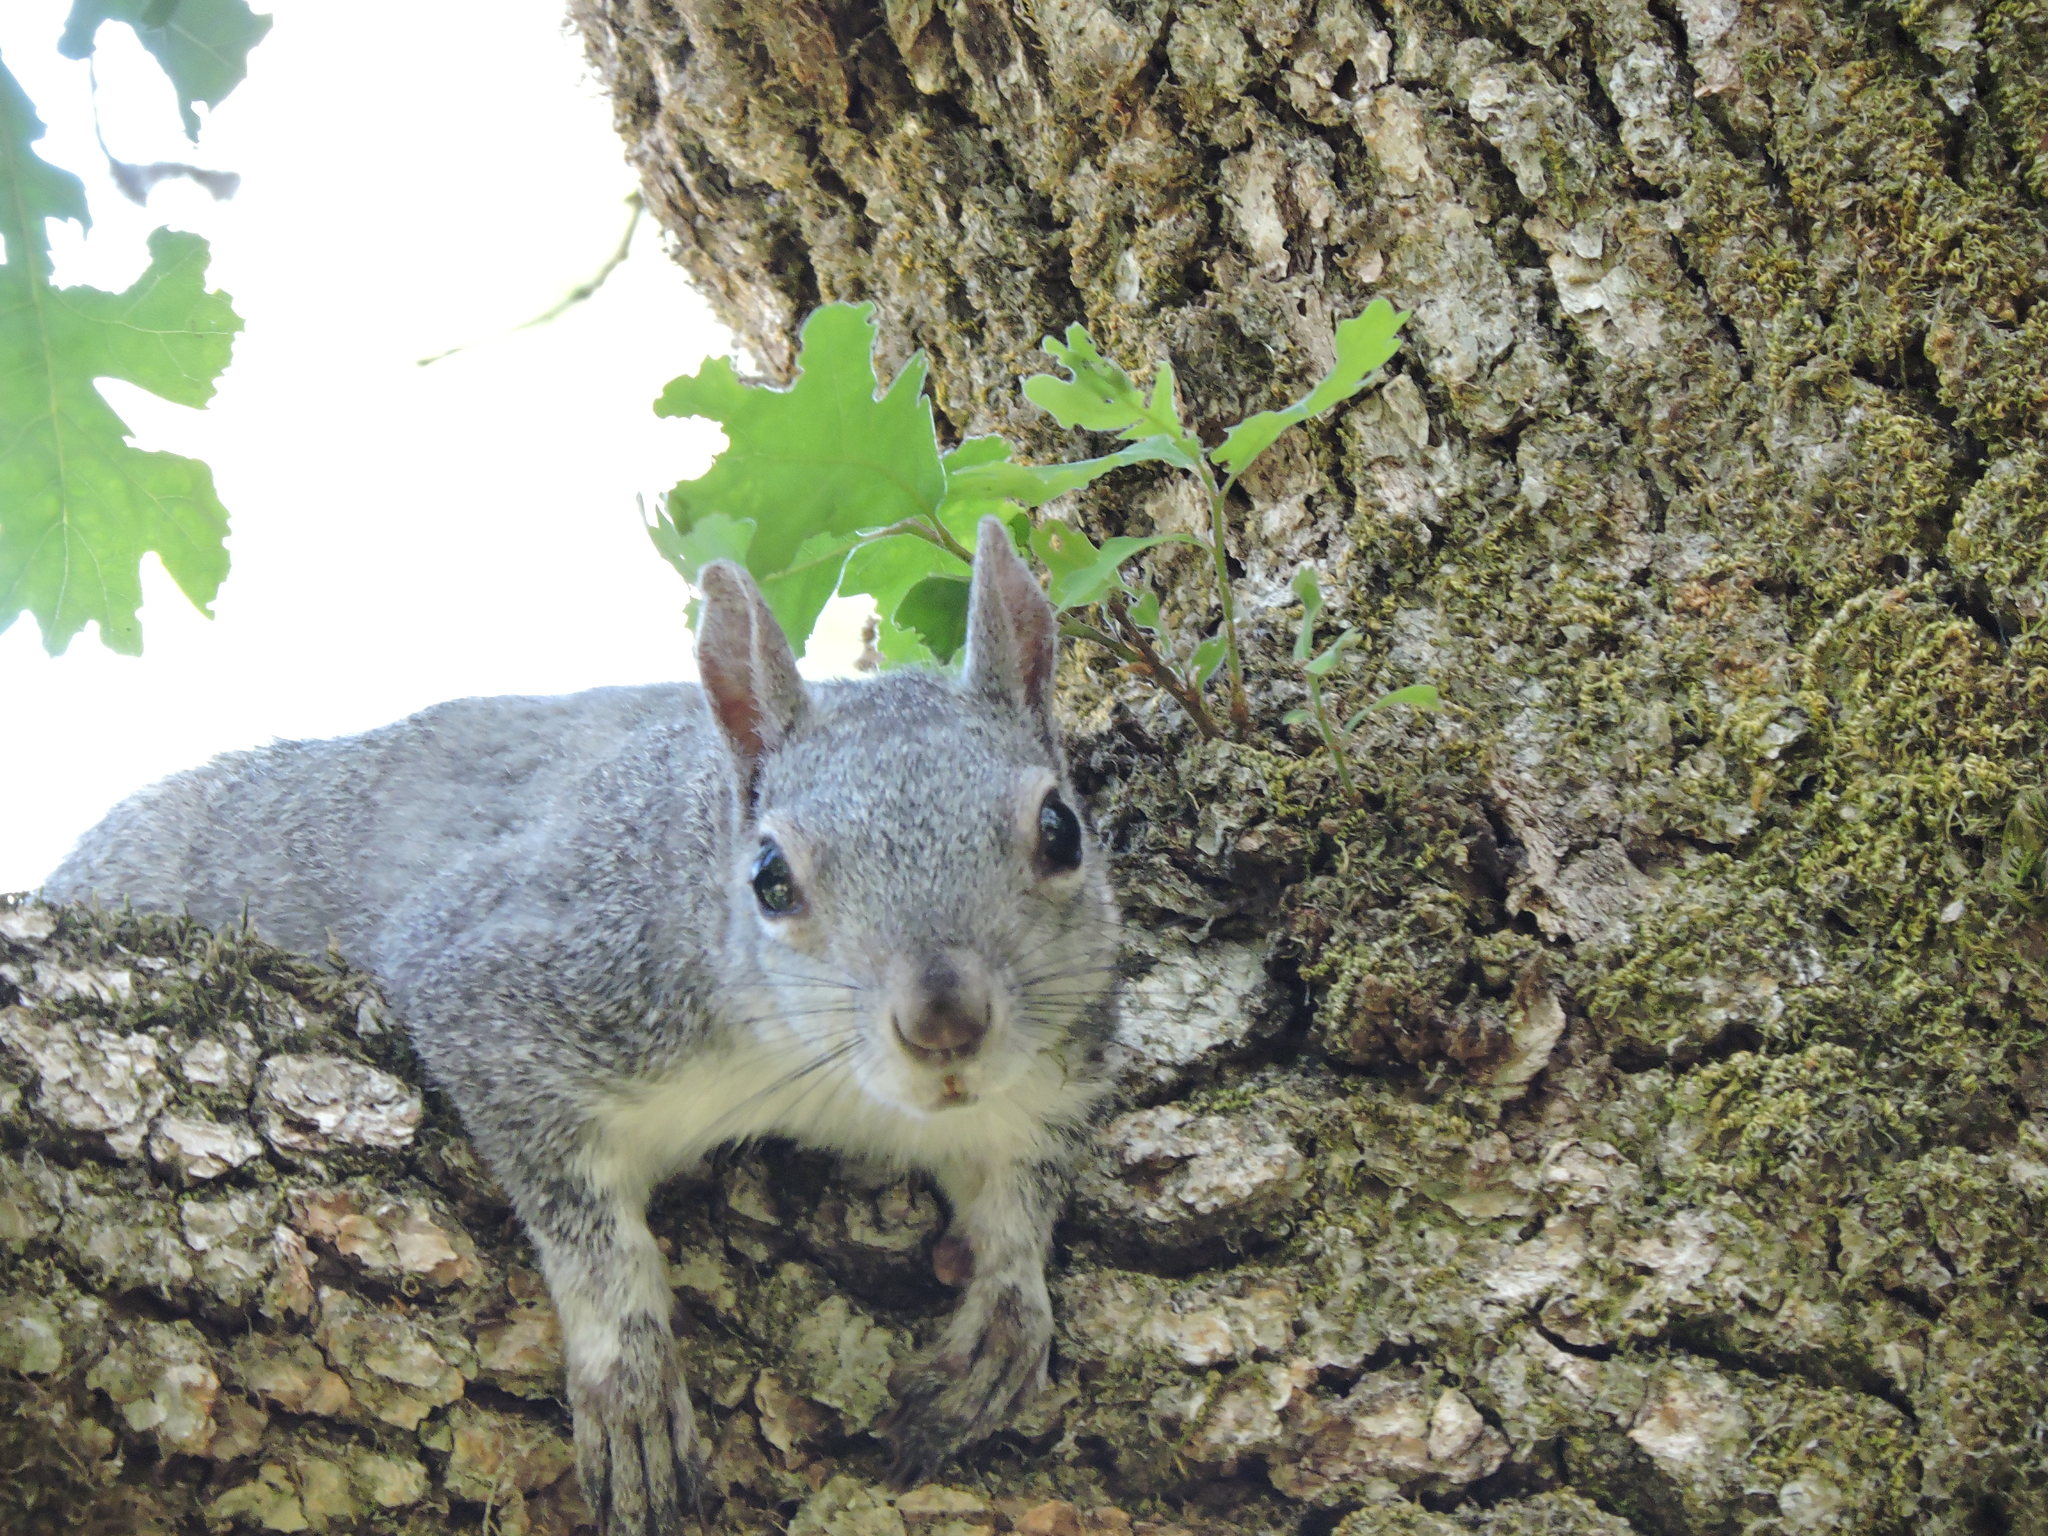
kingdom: Animalia
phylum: Chordata
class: Mammalia
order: Rodentia
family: Sciuridae
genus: Sciurus
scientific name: Sciurus griseus
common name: Western gray squirrel
